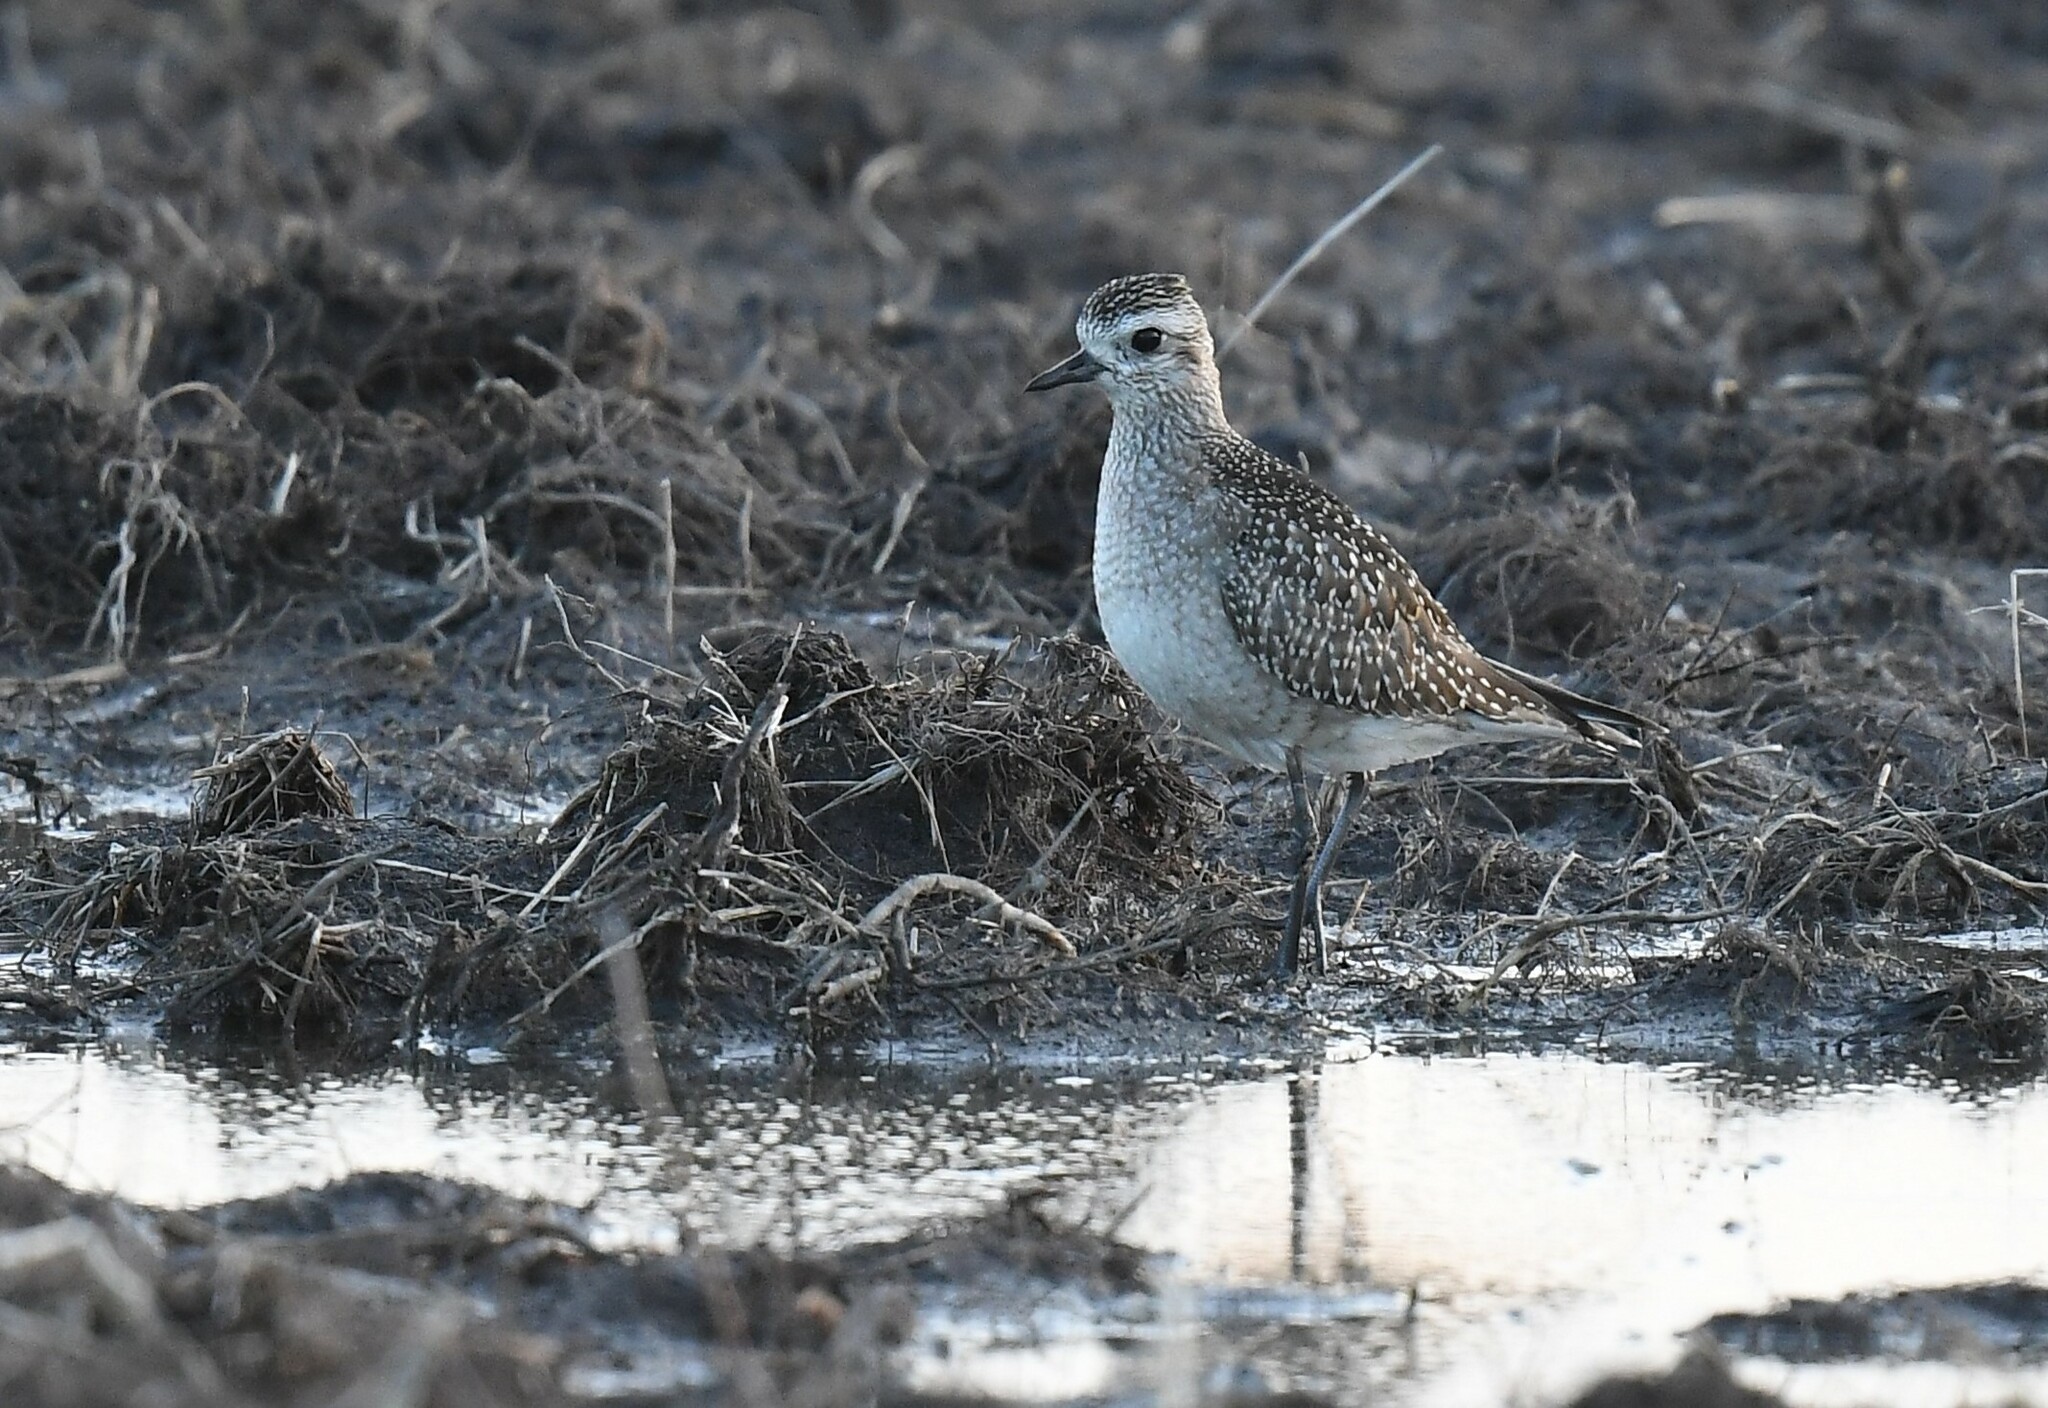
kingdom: Animalia
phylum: Chordata
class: Aves
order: Charadriiformes
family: Charadriidae
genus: Pluvialis
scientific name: Pluvialis dominica
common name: American golden plover
